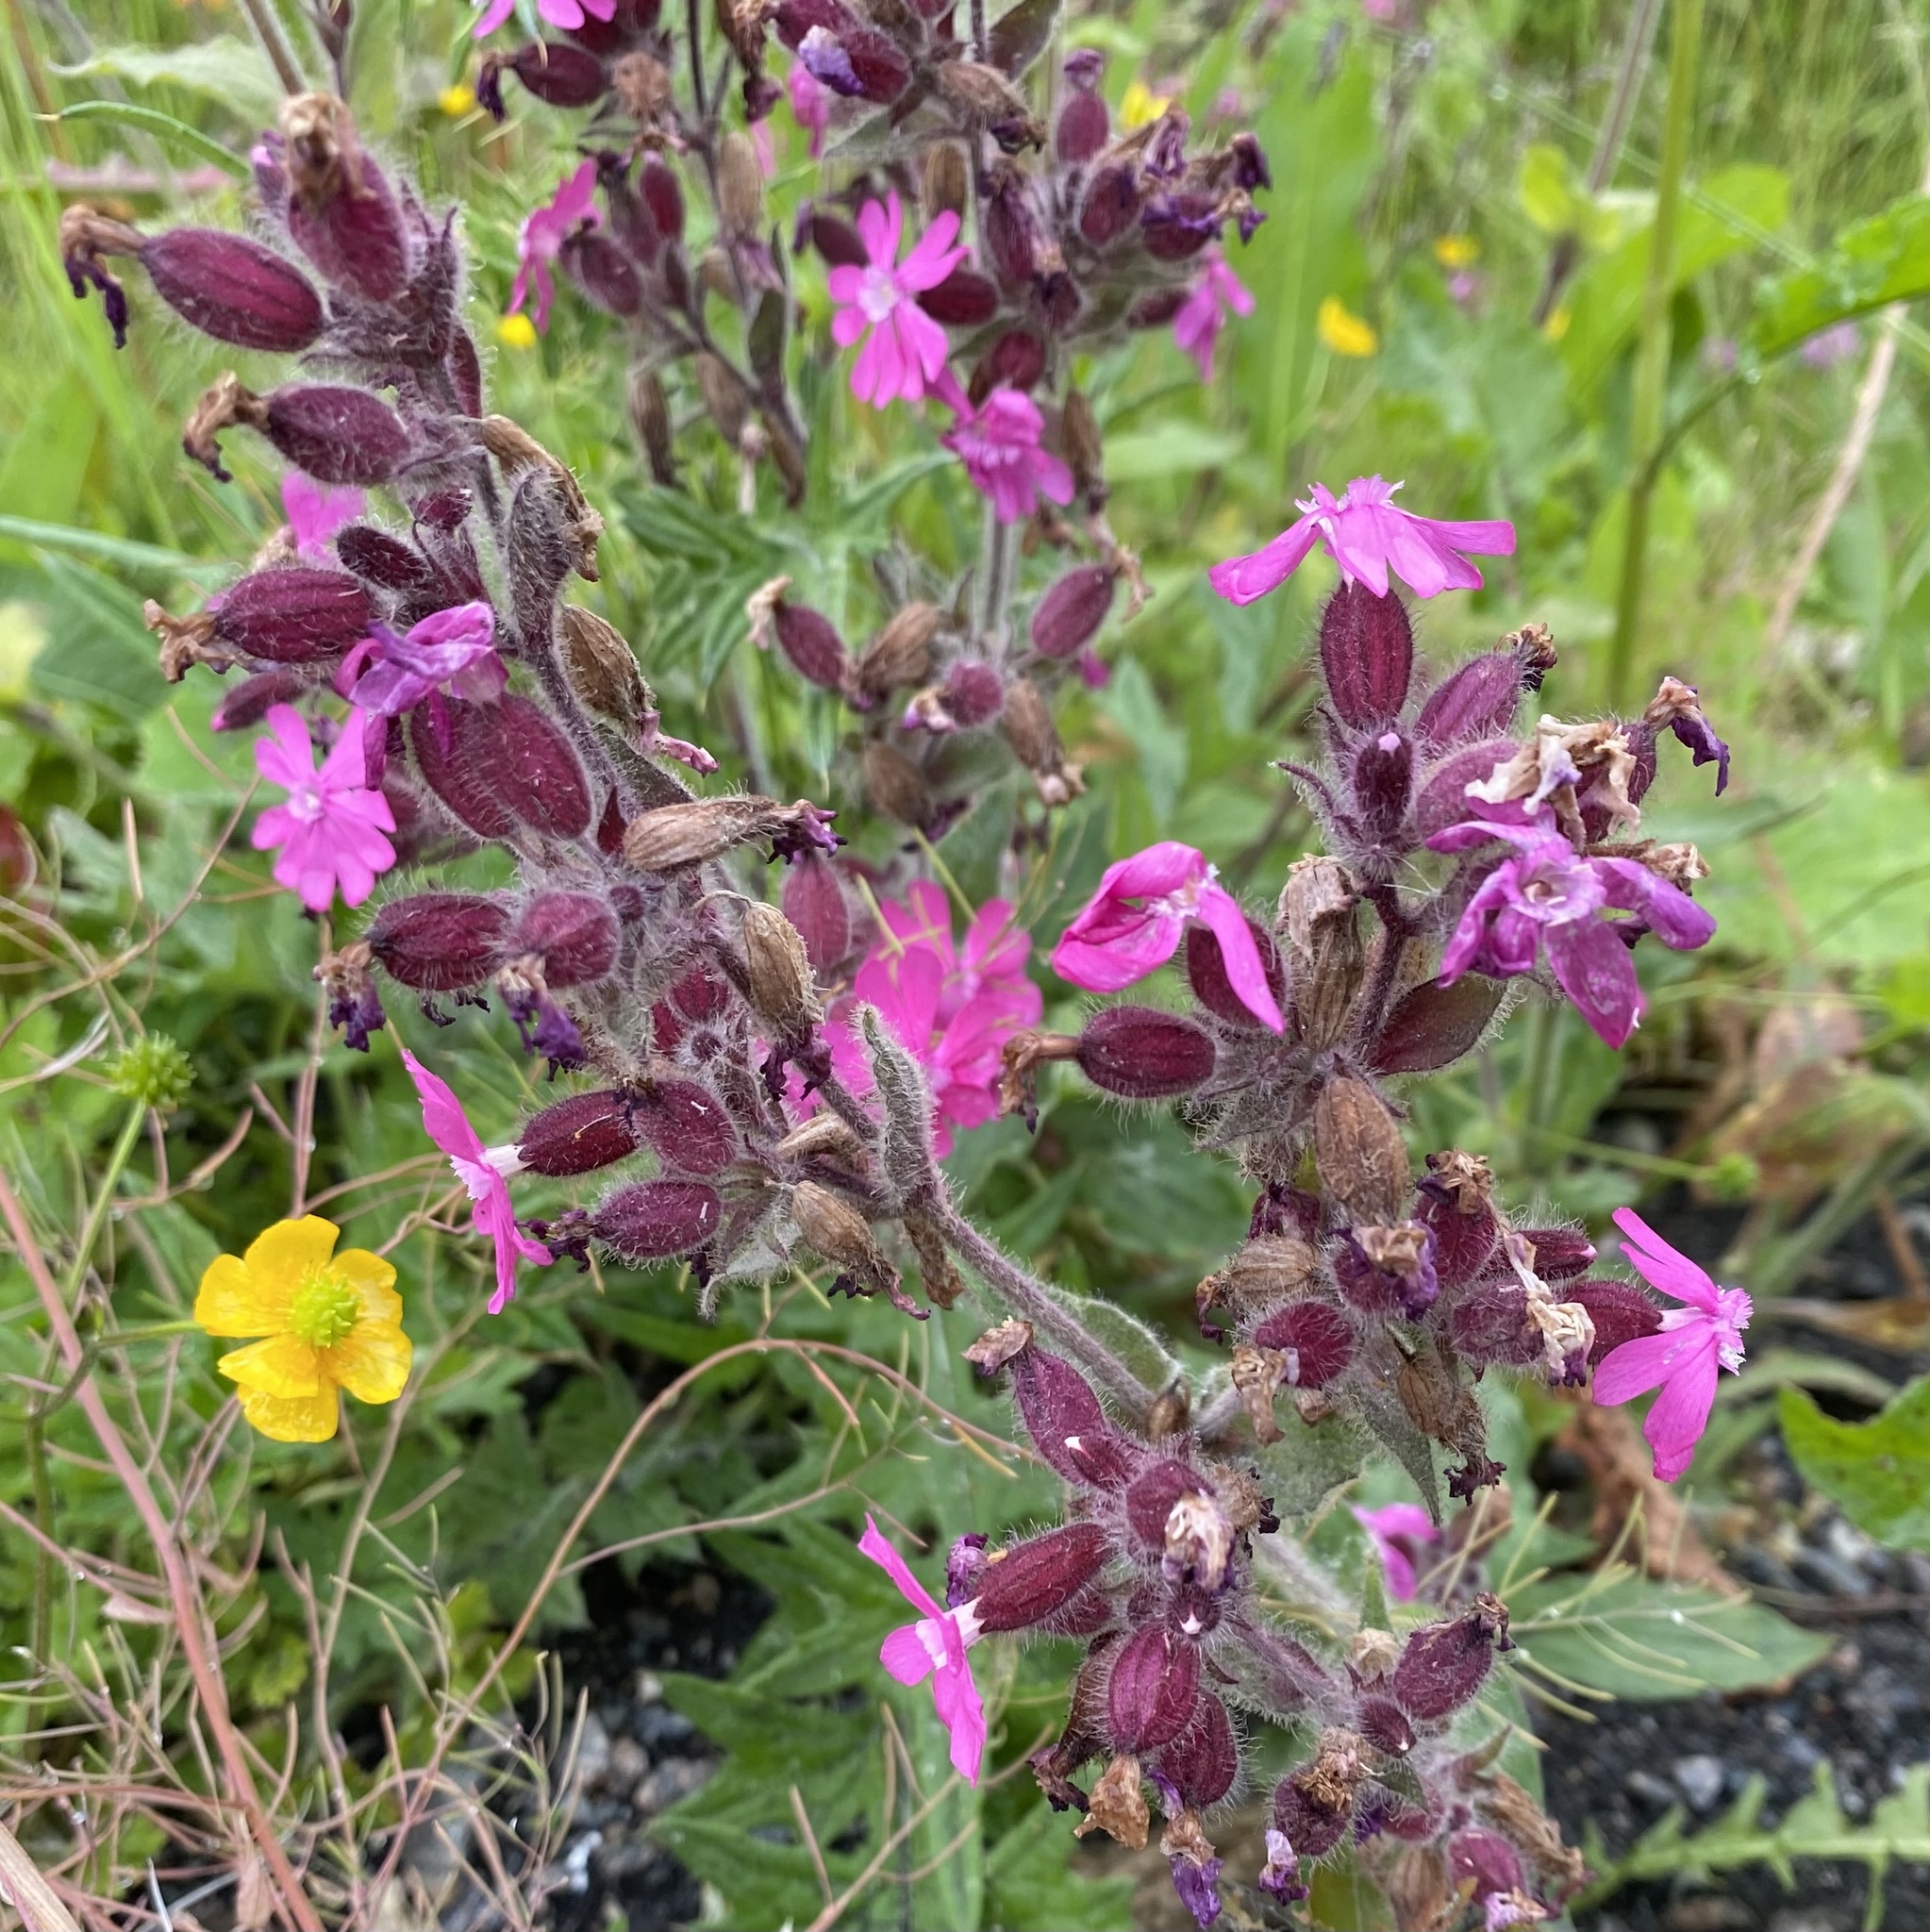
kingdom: Plantae
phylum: Tracheophyta
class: Magnoliopsida
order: Caryophyllales
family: Caryophyllaceae
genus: Silene
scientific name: Silene dioica
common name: Red campion
